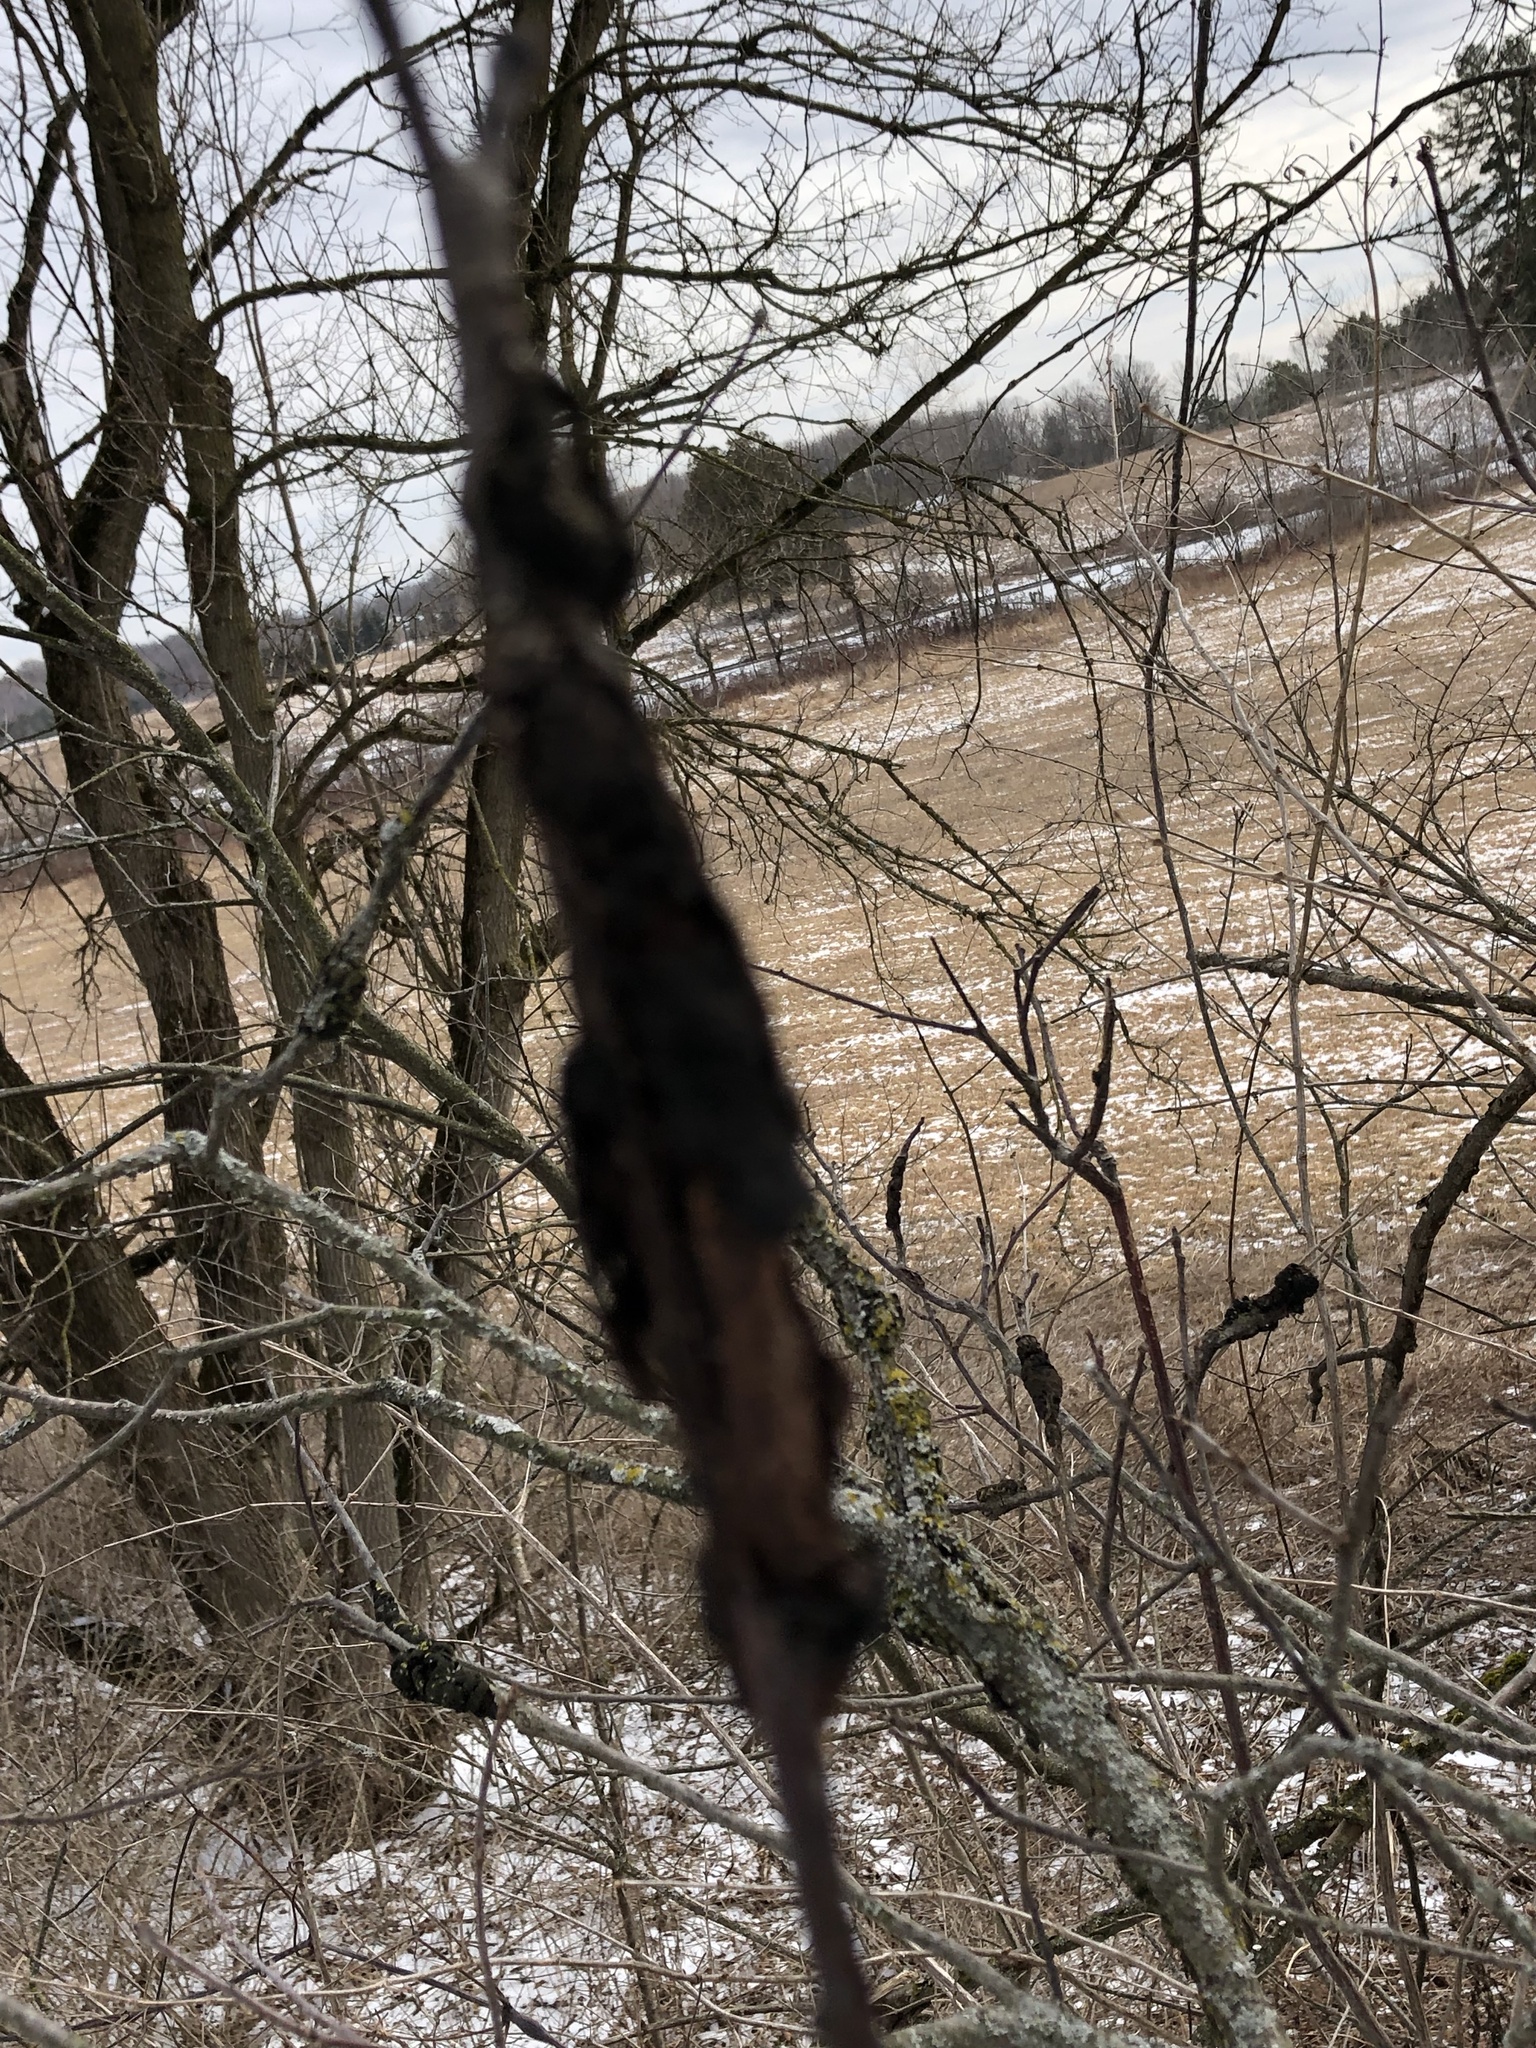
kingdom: Fungi
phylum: Ascomycota
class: Dothideomycetes
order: Venturiales
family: Venturiaceae
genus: Apiosporina
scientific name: Apiosporina morbosa
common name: Black knot
